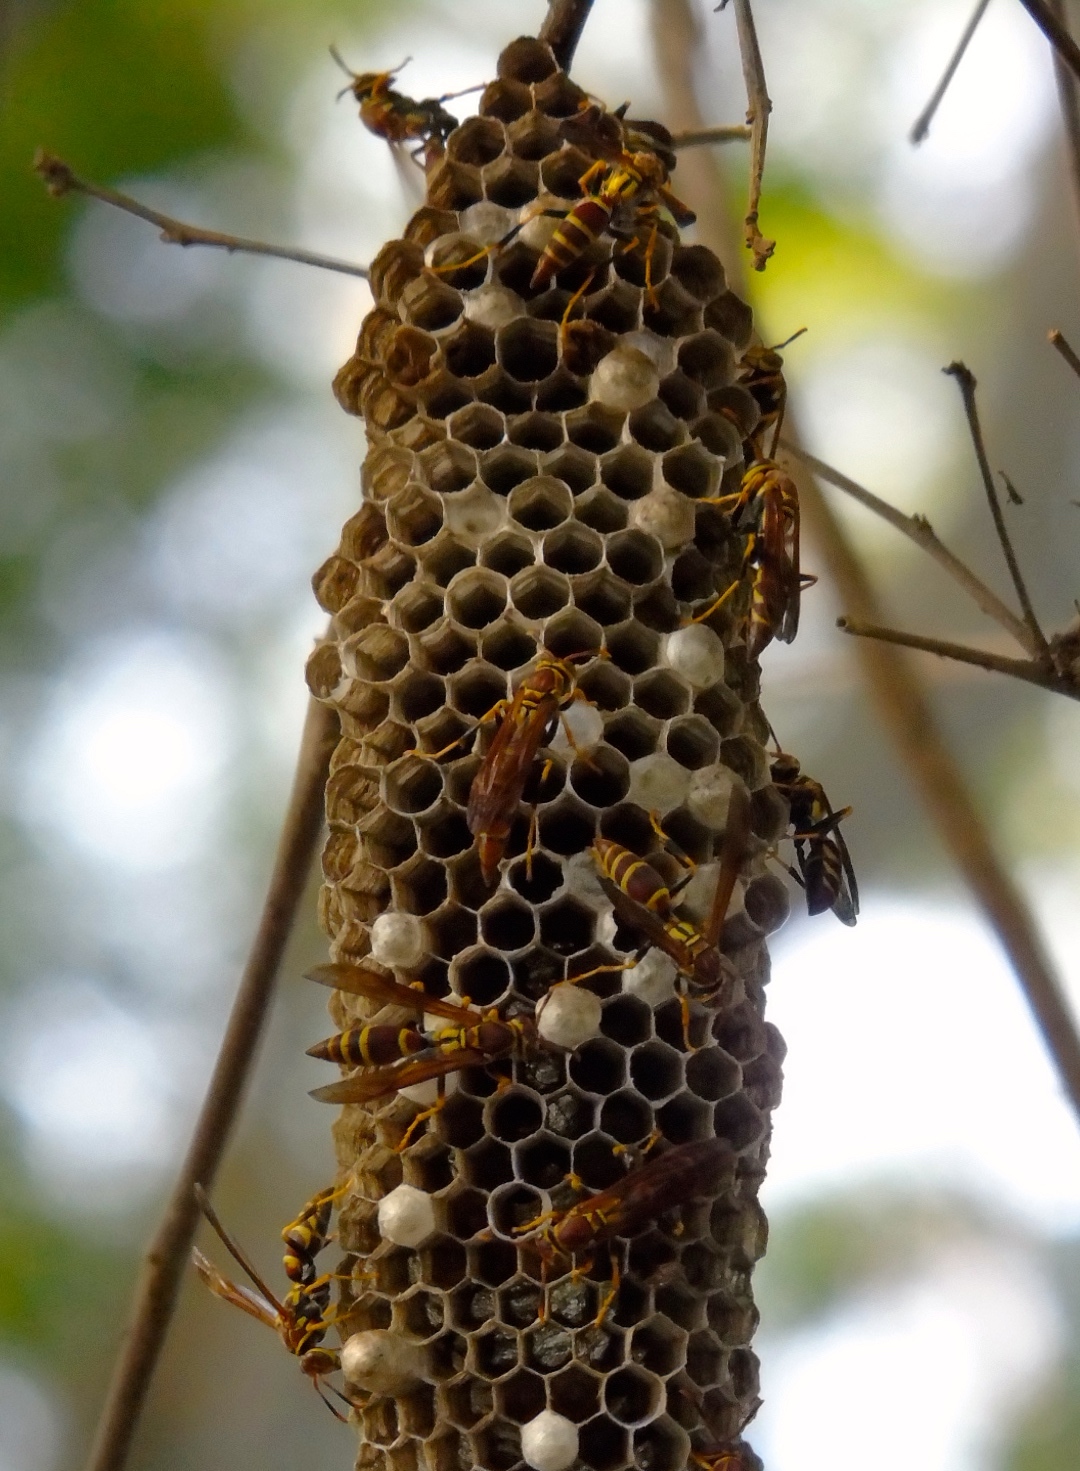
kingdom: Animalia
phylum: Arthropoda
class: Insecta
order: Hymenoptera
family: Eumenidae
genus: Polistes
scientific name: Polistes instabilis
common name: Unstable paper wasp
